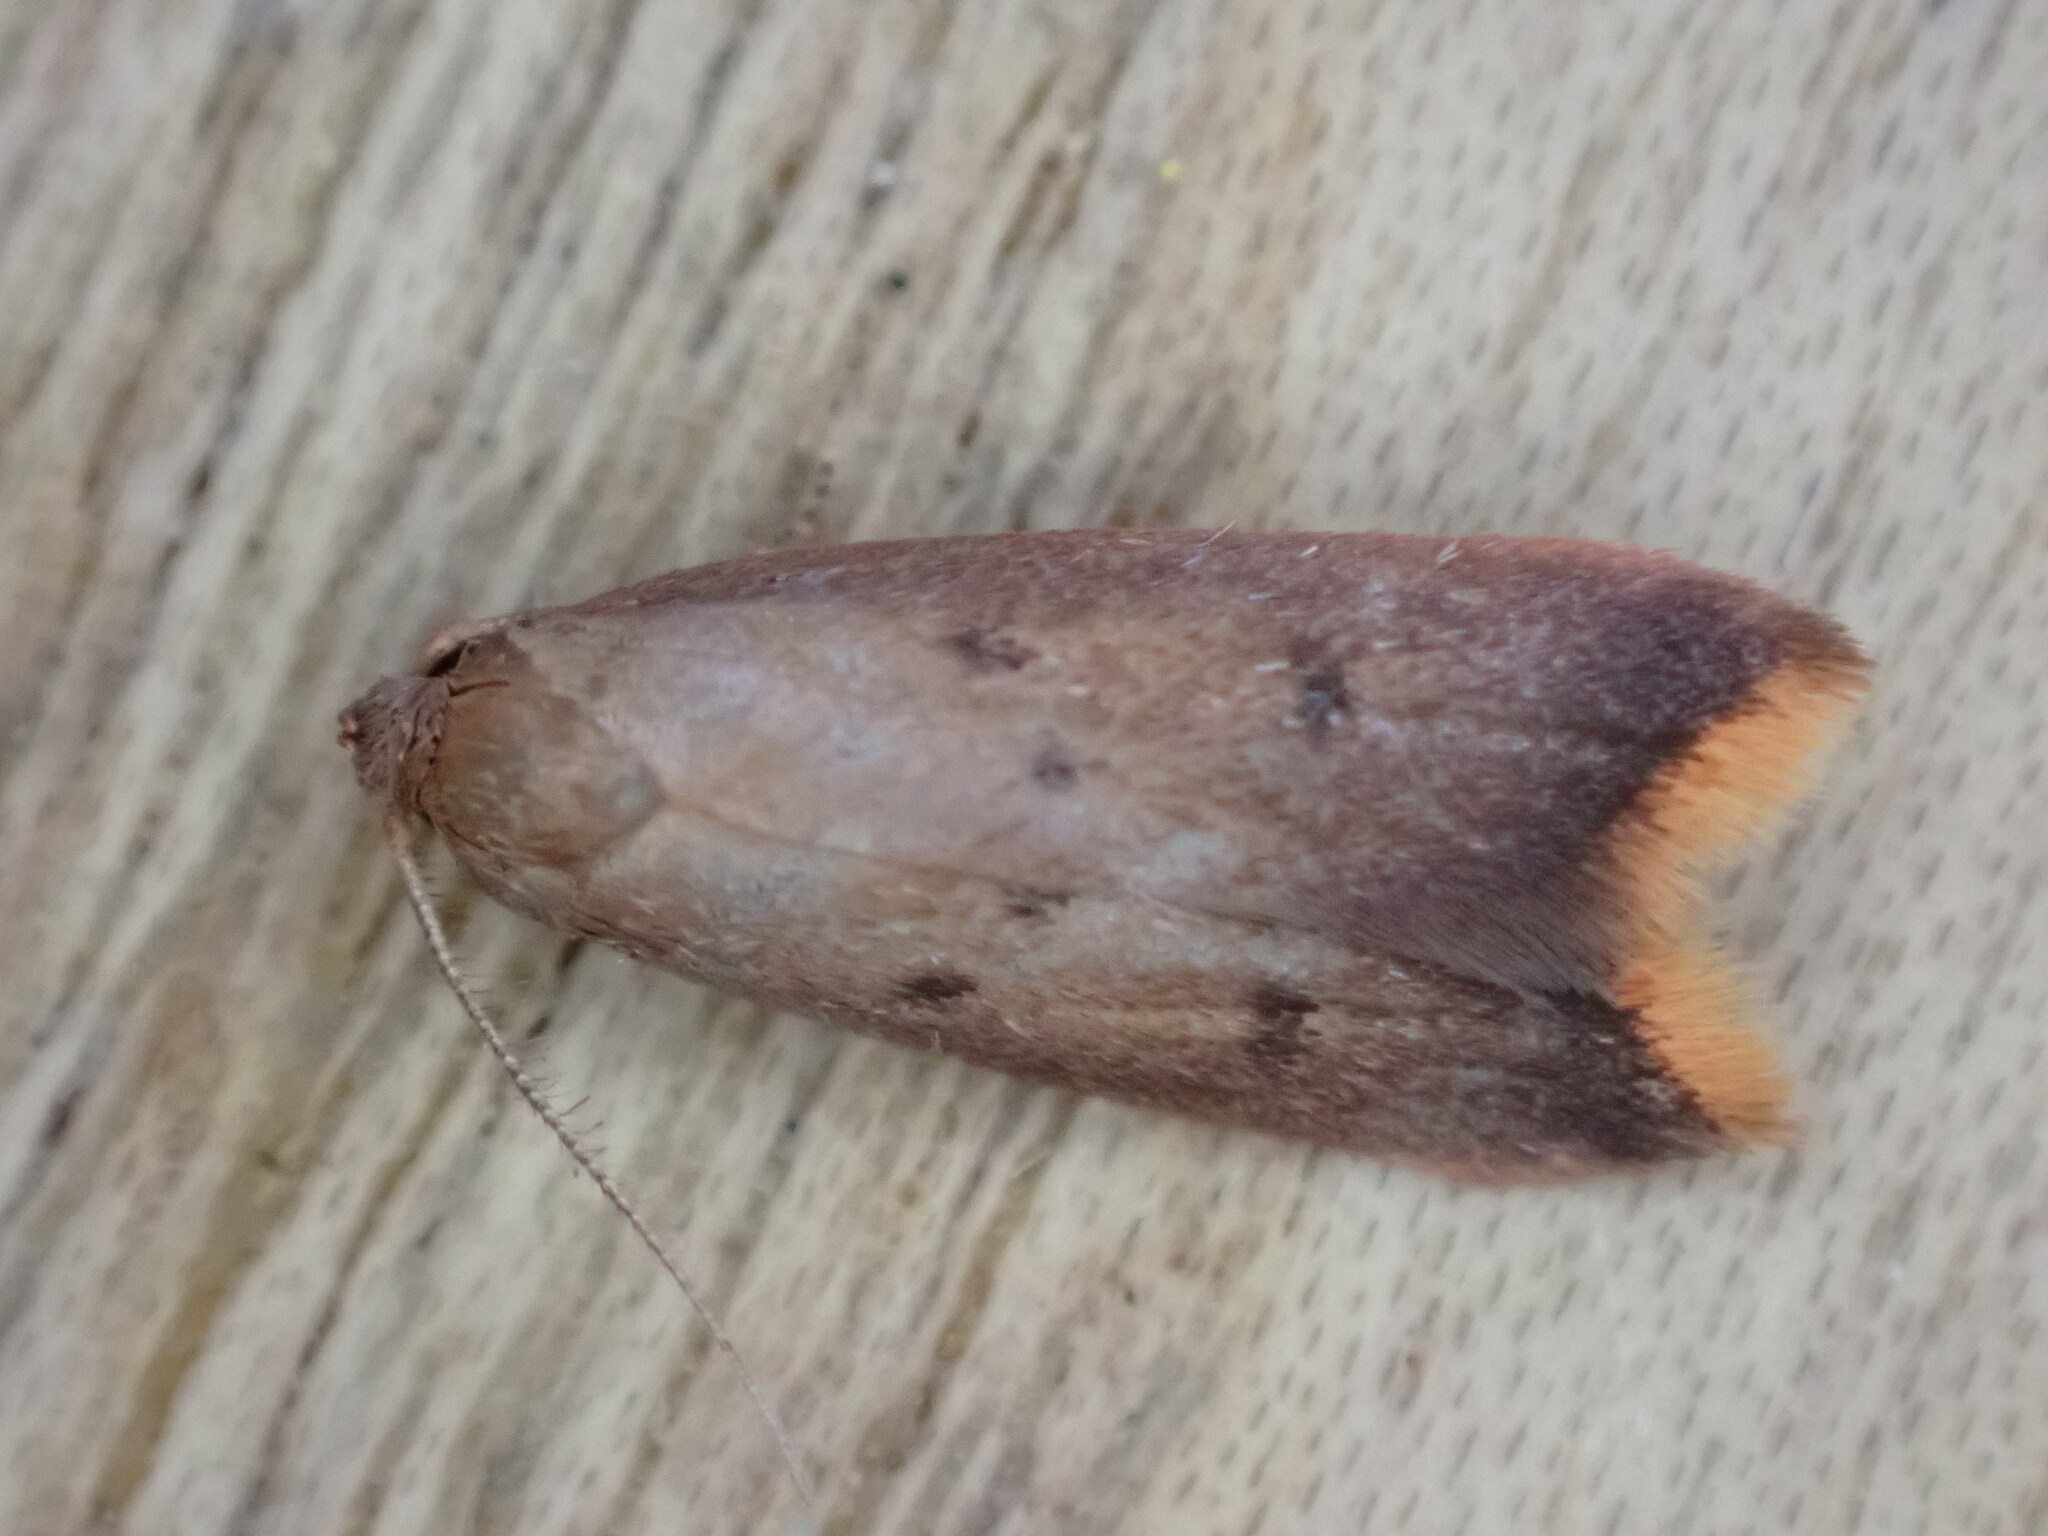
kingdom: Animalia
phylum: Arthropoda
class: Insecta
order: Lepidoptera
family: Oecophoridae
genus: Tachystola
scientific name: Tachystola acroxantha
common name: Ruddy streak
